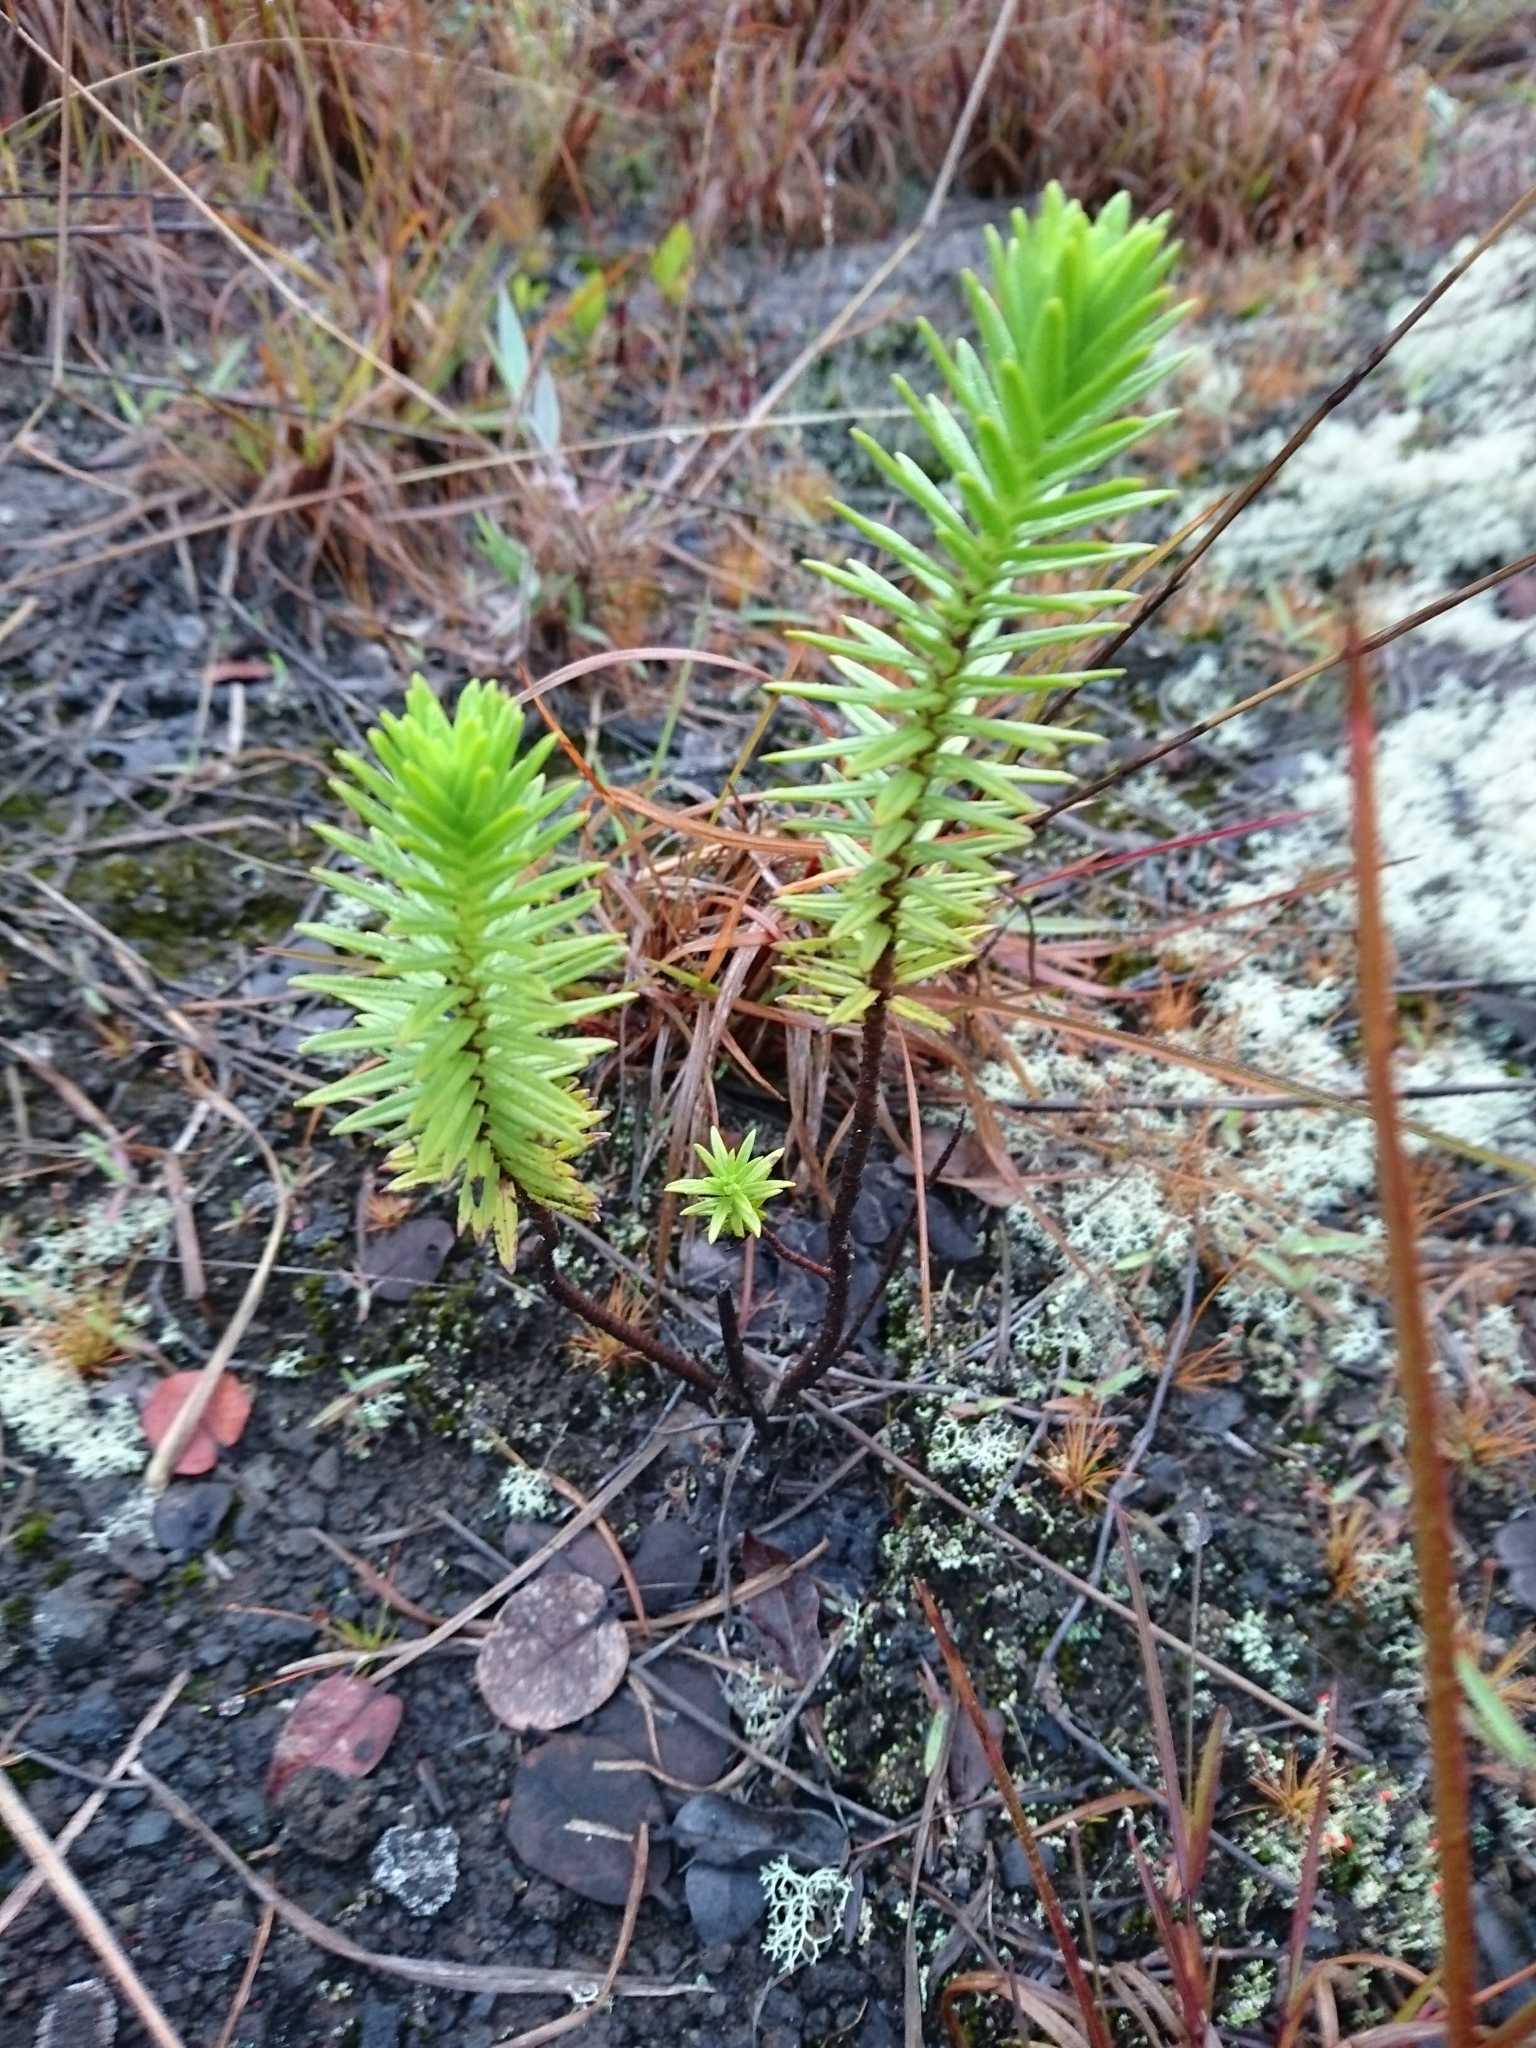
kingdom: Plantae
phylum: Tracheophyta
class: Magnoliopsida
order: Asterales
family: Asteraceae
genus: Dubautia
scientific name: Dubautia ciliolata
